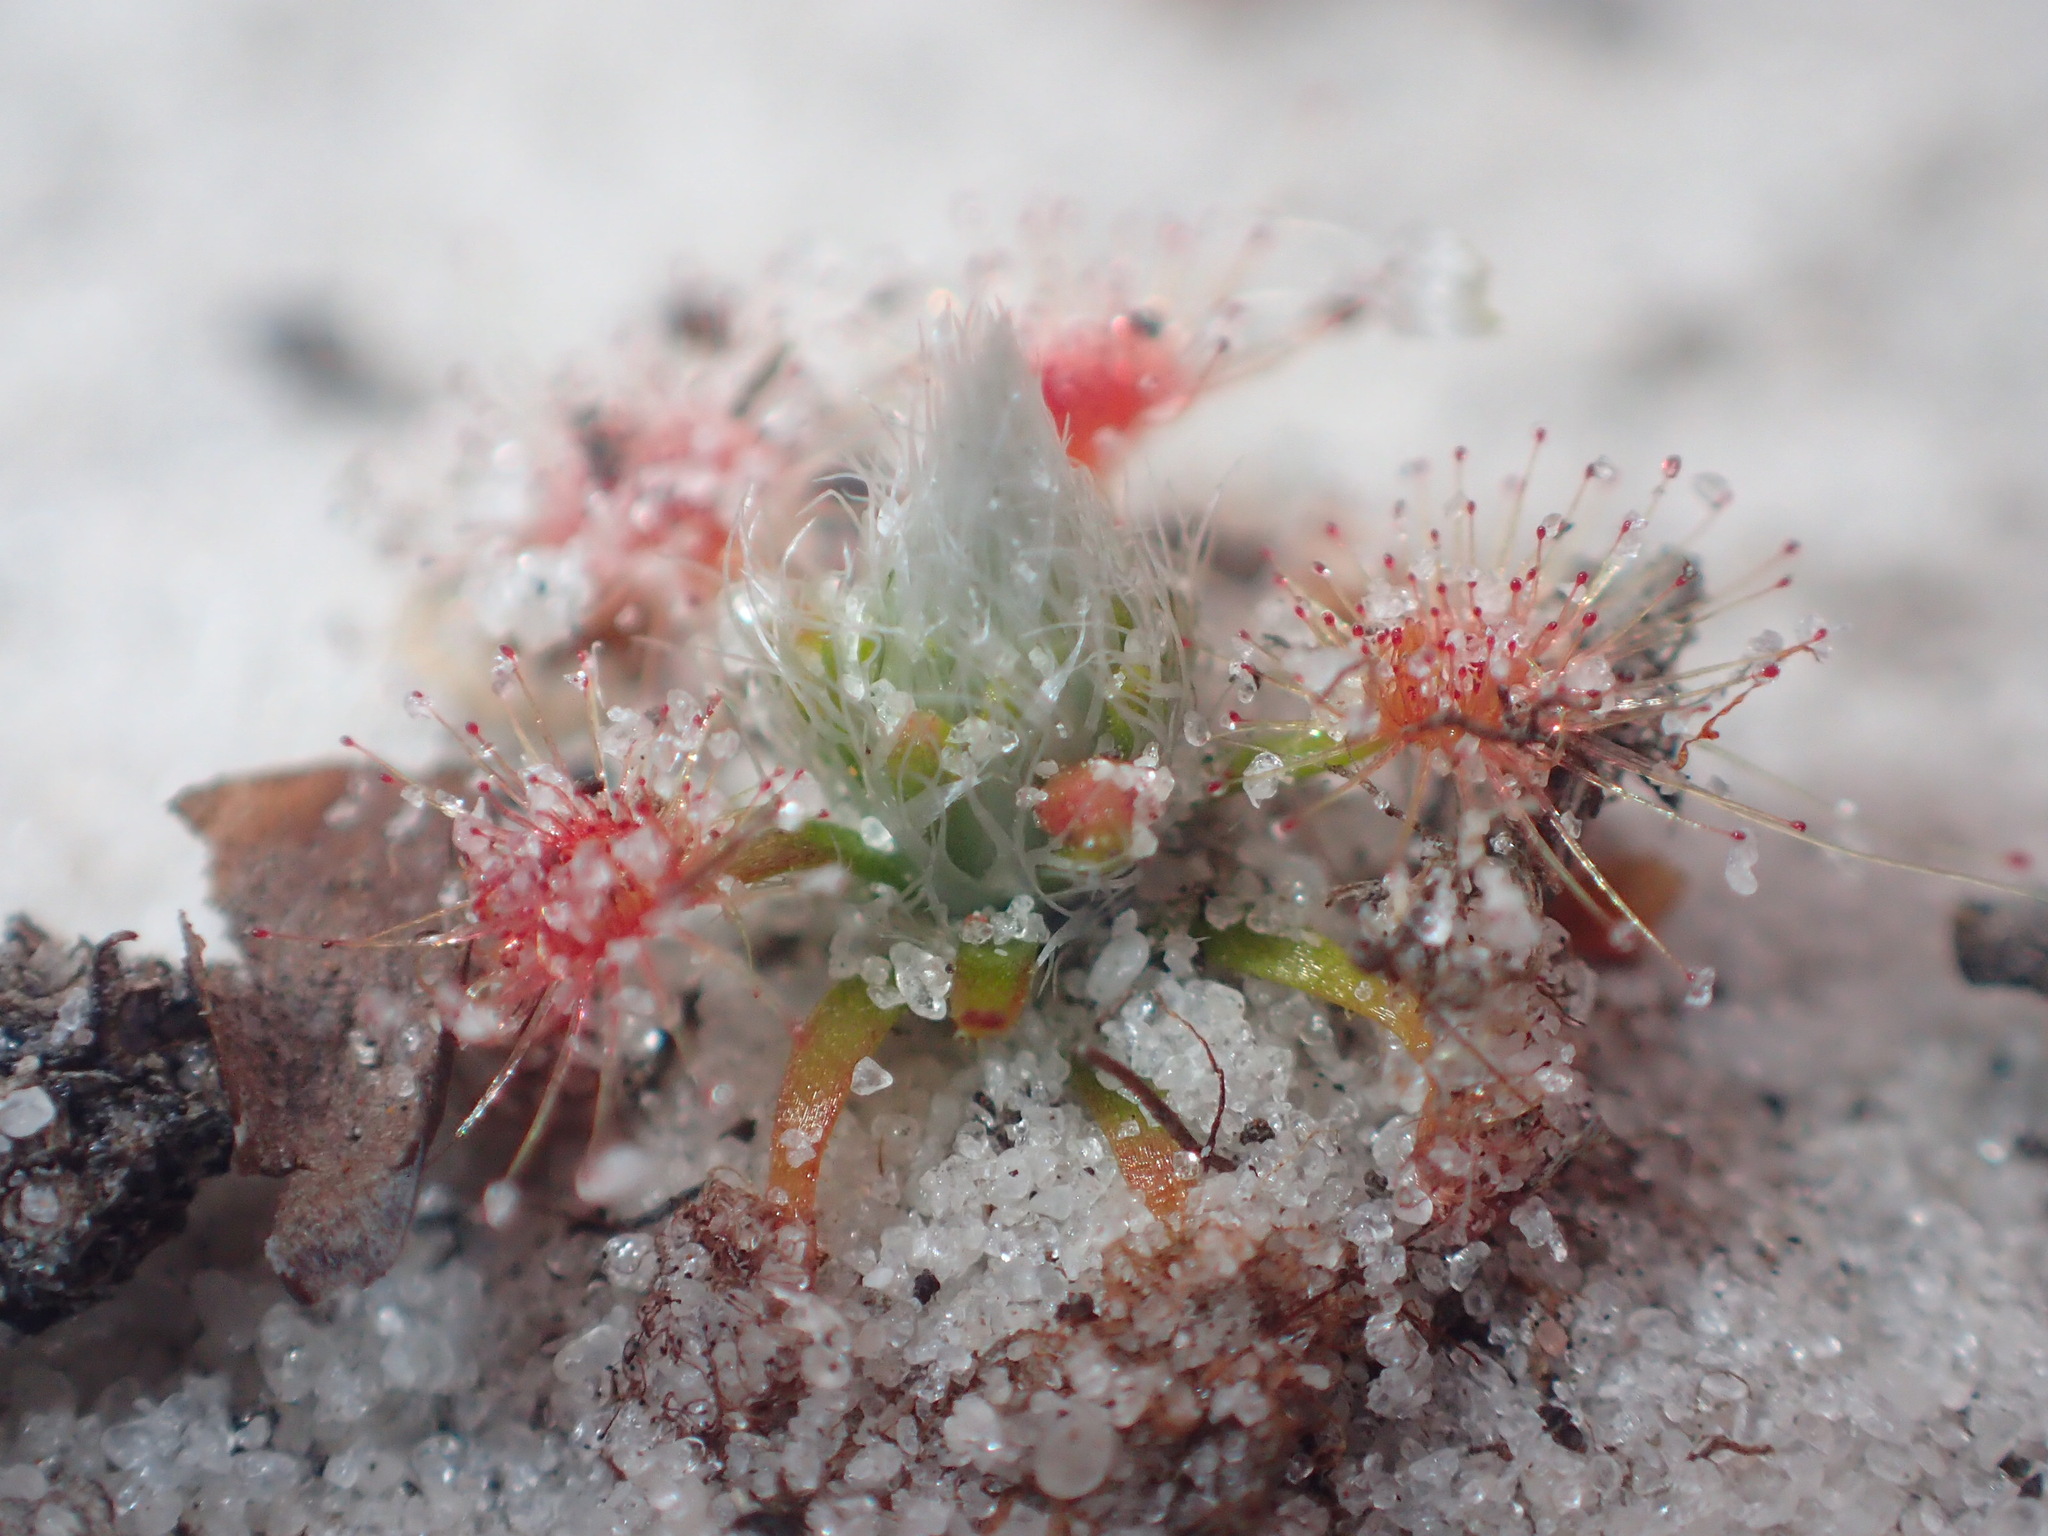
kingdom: Plantae
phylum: Tracheophyta
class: Magnoliopsida
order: Caryophyllales
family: Droseraceae
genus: Drosera
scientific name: Drosera paleacea
